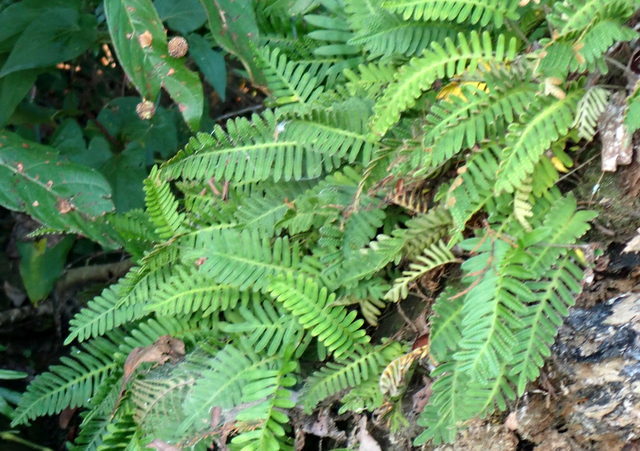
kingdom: Plantae
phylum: Tracheophyta
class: Polypodiopsida
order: Polypodiales
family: Polypodiaceae
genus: Pleopeltis
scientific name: Pleopeltis michauxiana
